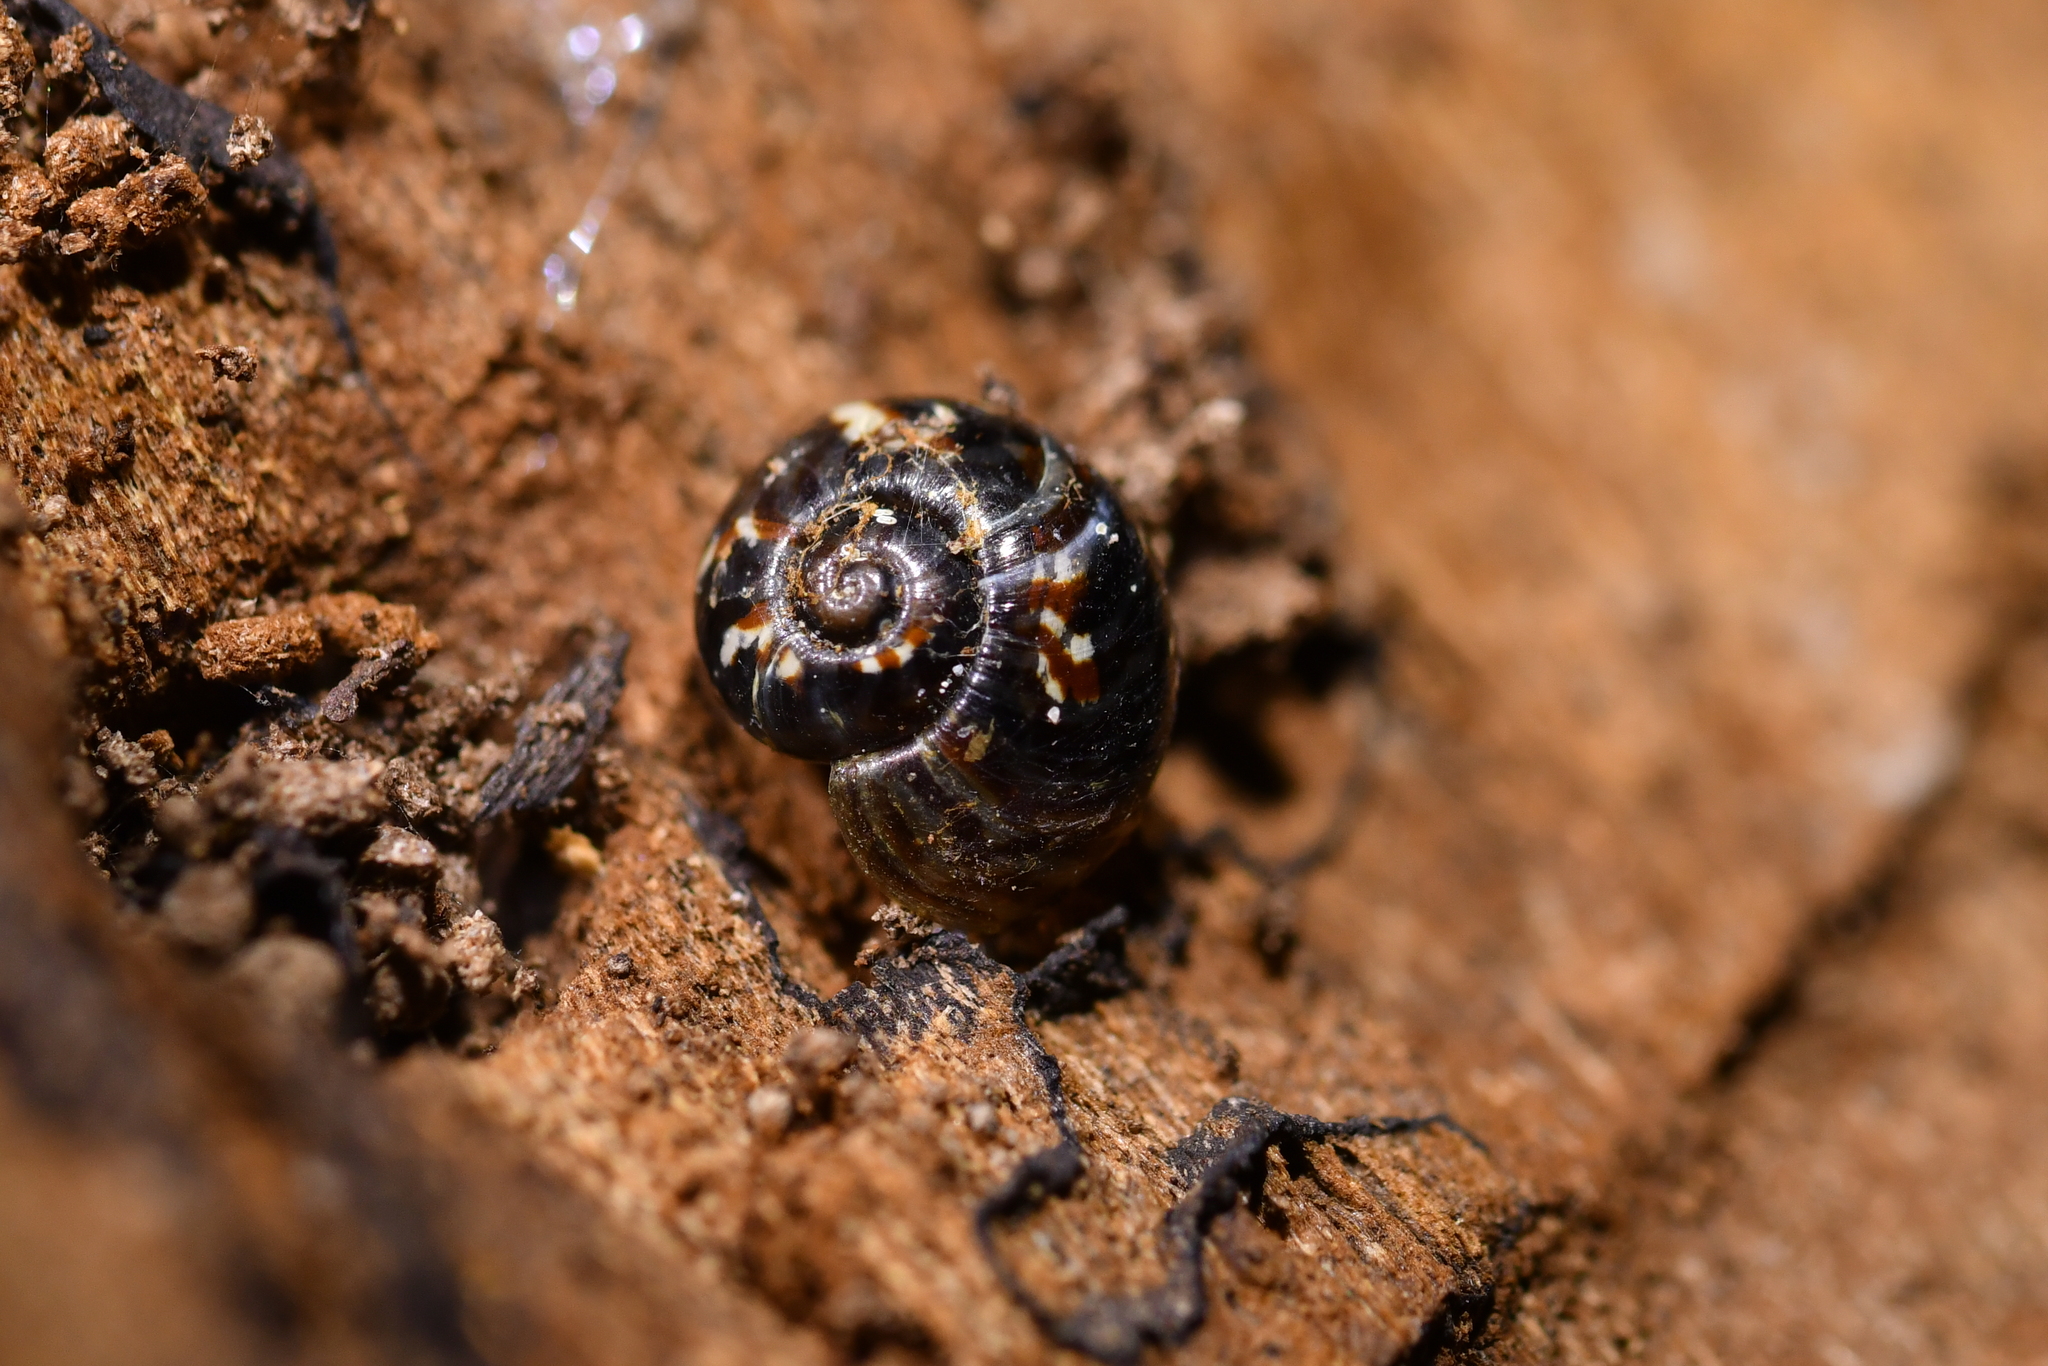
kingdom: Animalia
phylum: Mollusca
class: Gastropoda
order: Stylommatophora
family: Charopidae
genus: Flammulina
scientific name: Flammulina zebra
